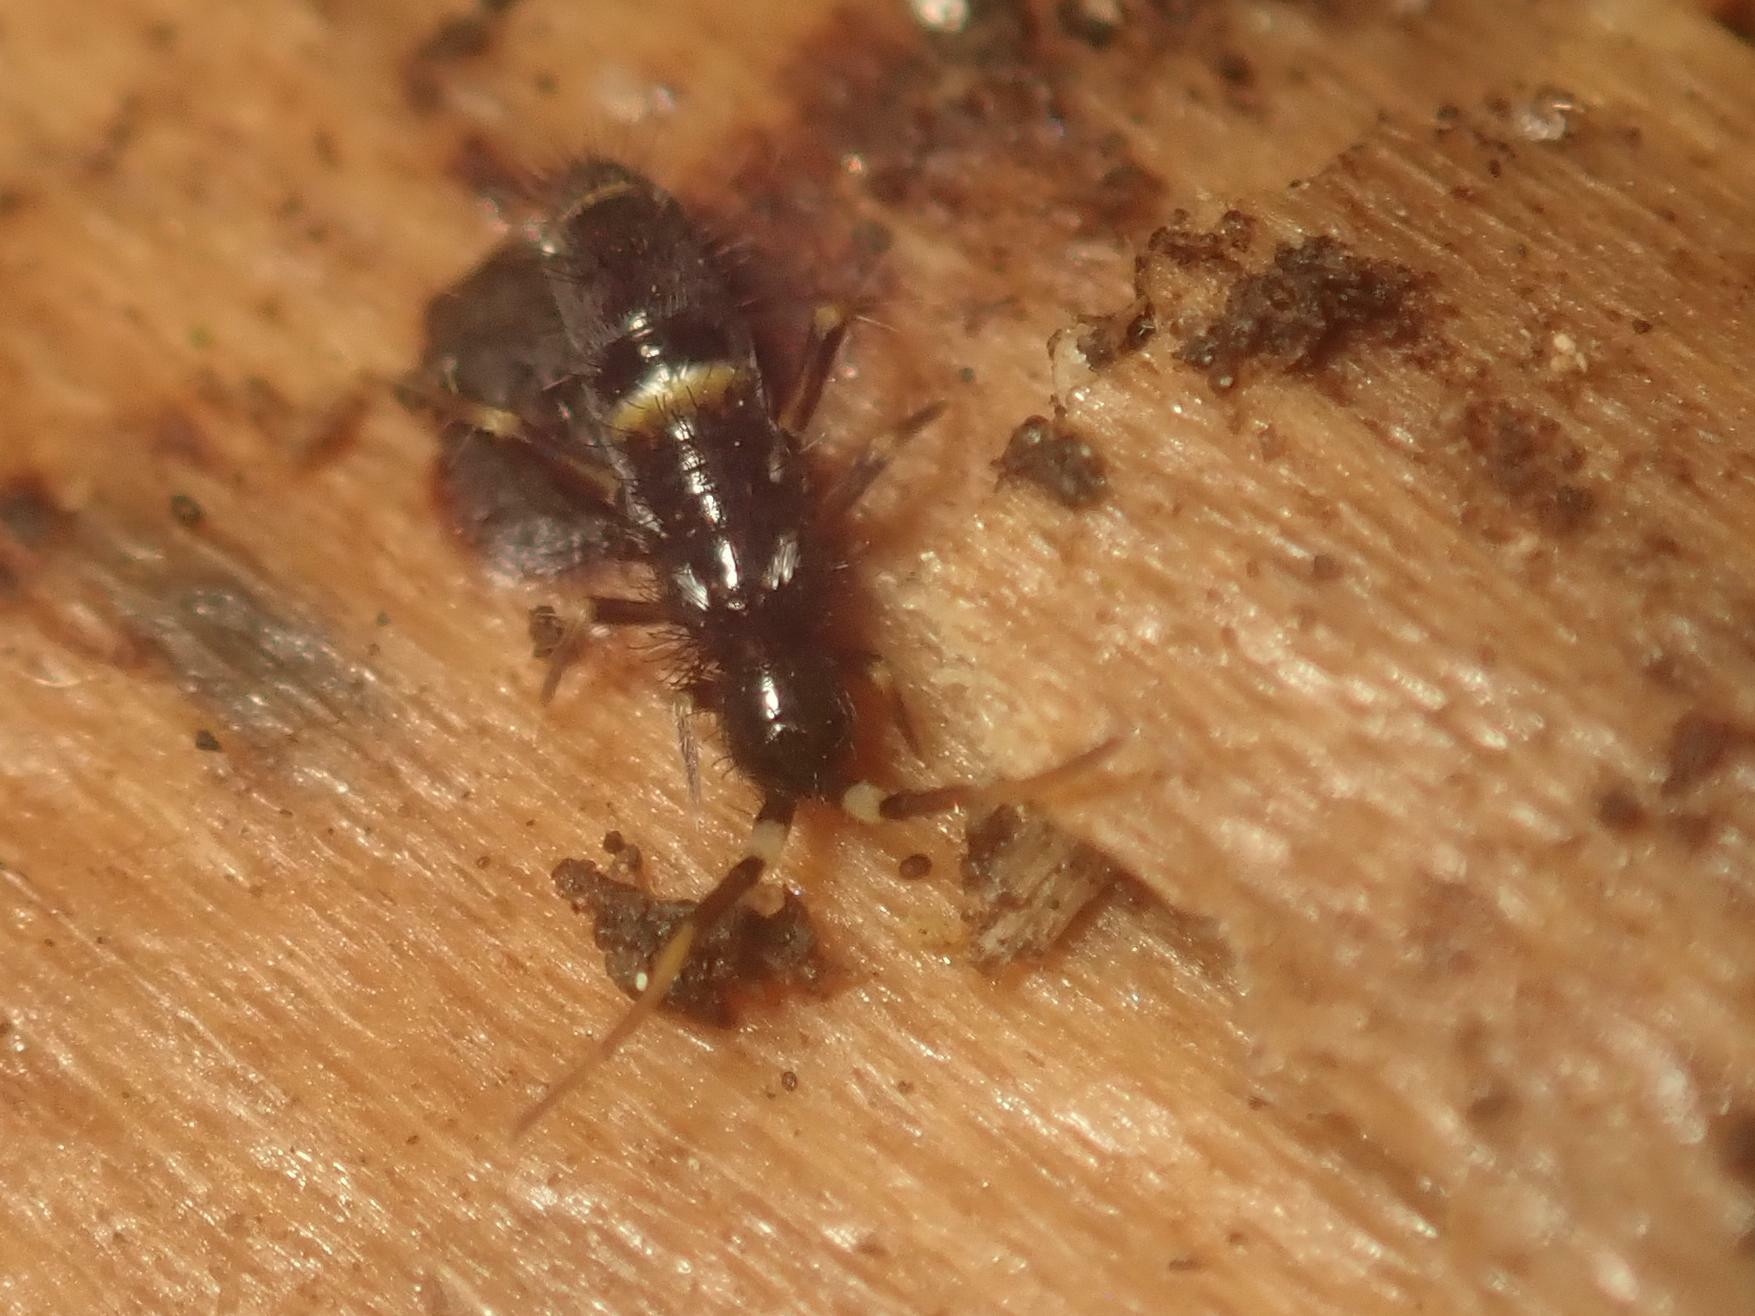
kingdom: Animalia
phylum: Arthropoda
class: Collembola
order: Entomobryomorpha
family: Orchesellidae
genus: Orchesella
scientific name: Orchesella cincta
